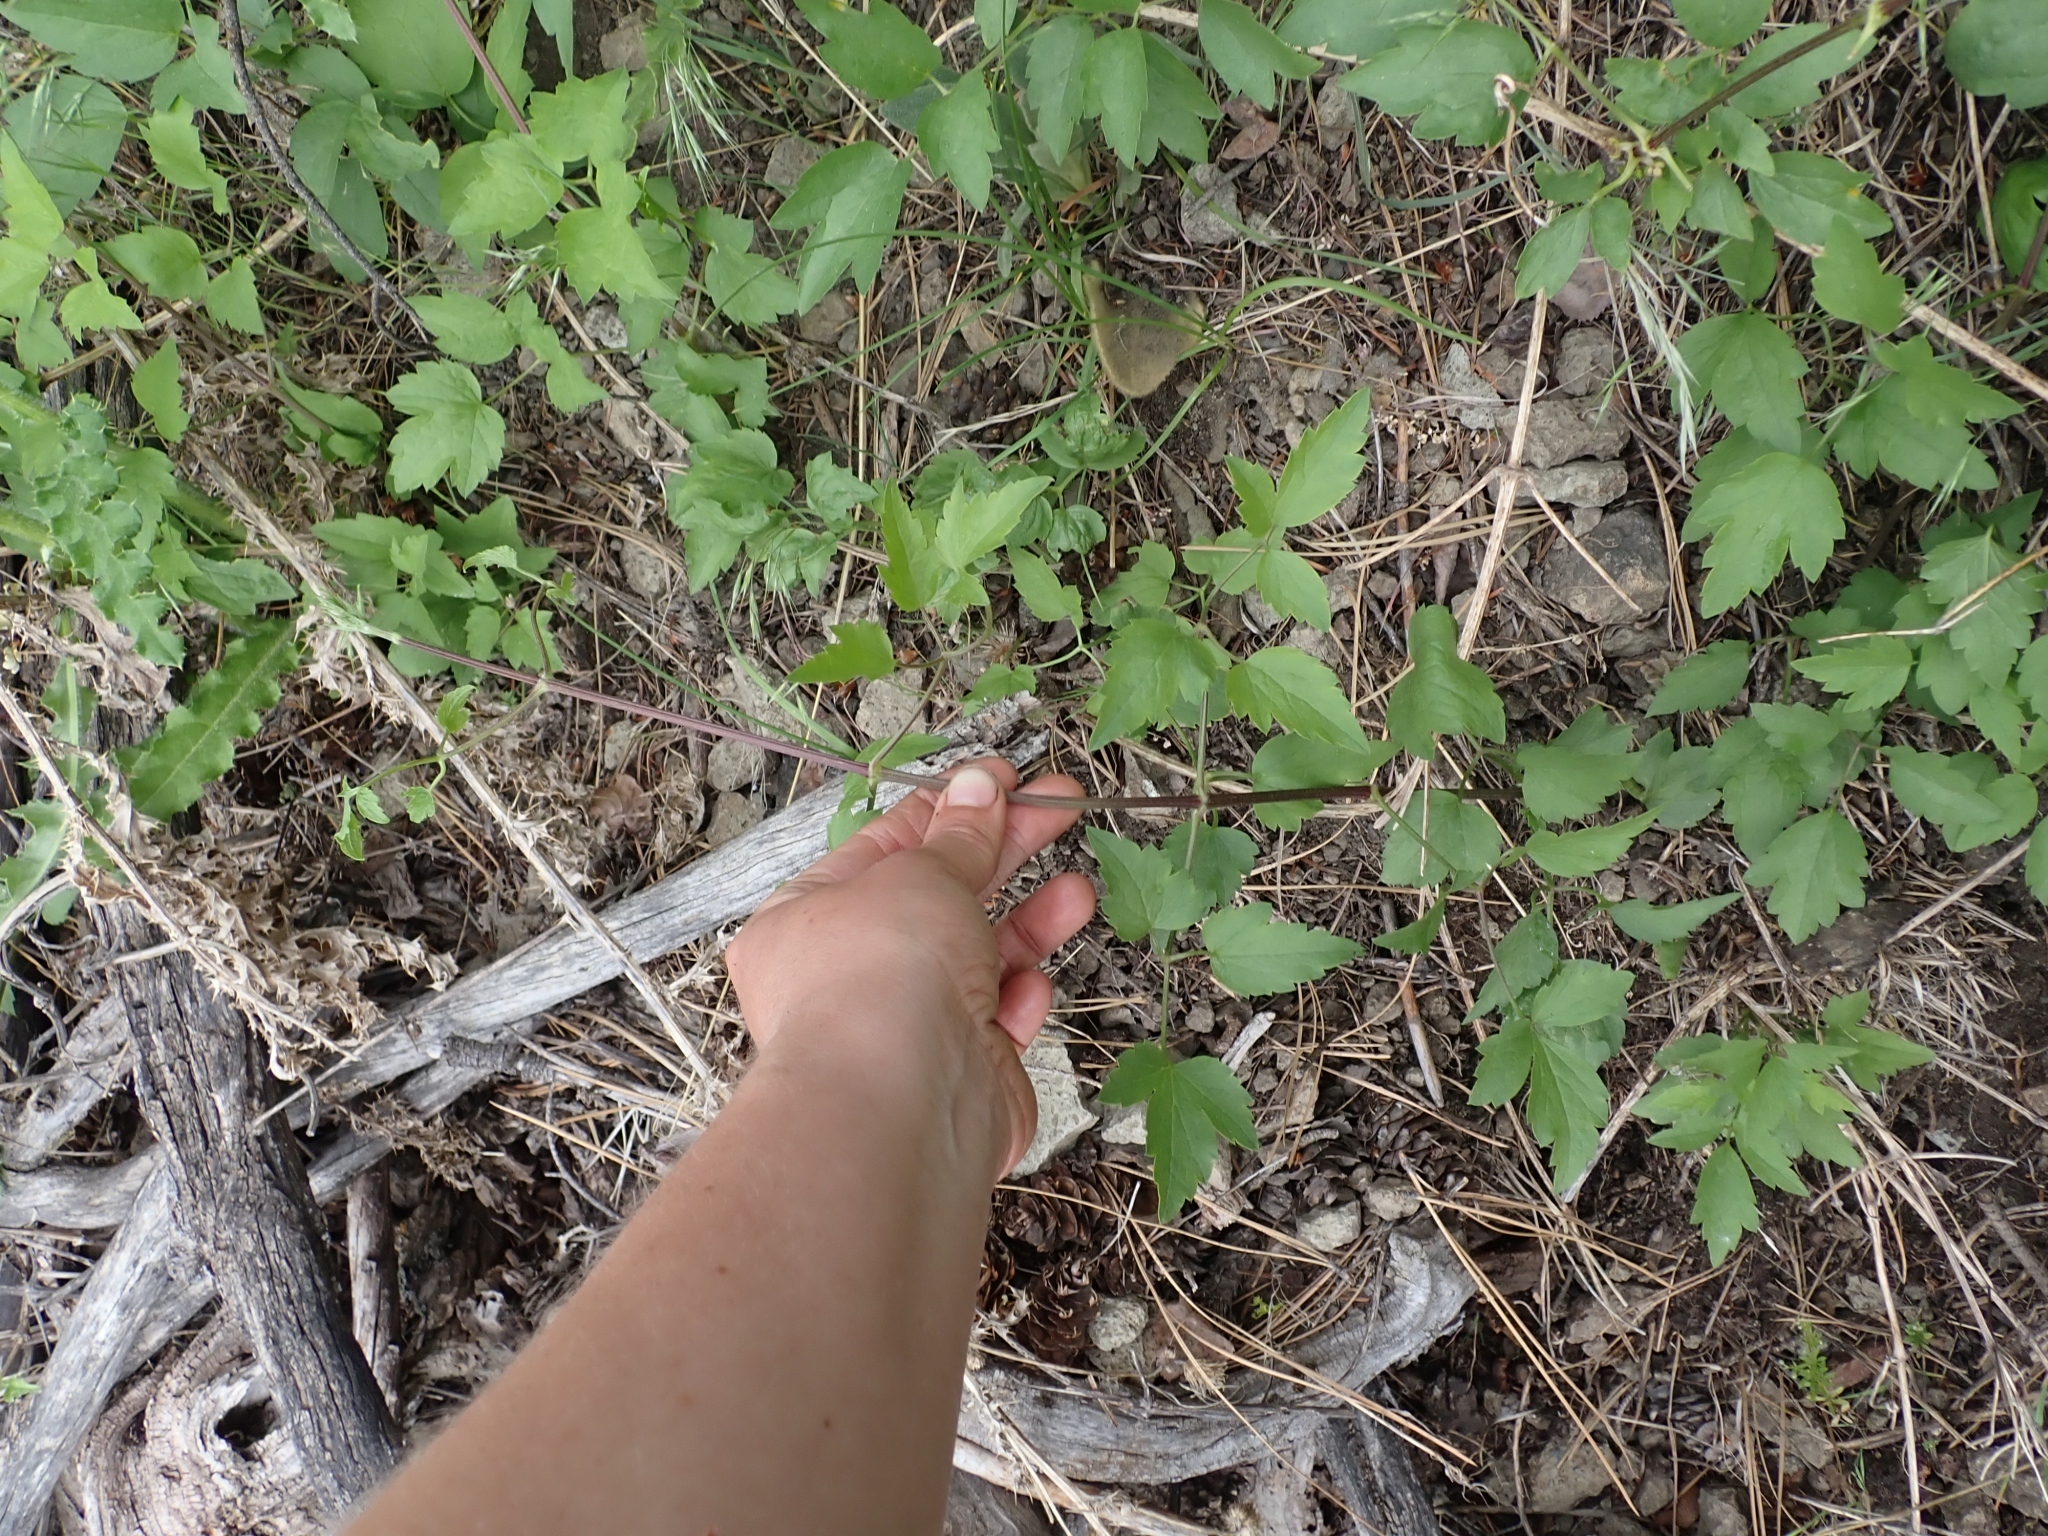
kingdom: Plantae
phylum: Tracheophyta
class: Magnoliopsida
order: Ranunculales
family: Ranunculaceae
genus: Clematis
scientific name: Clematis ligusticifolia
